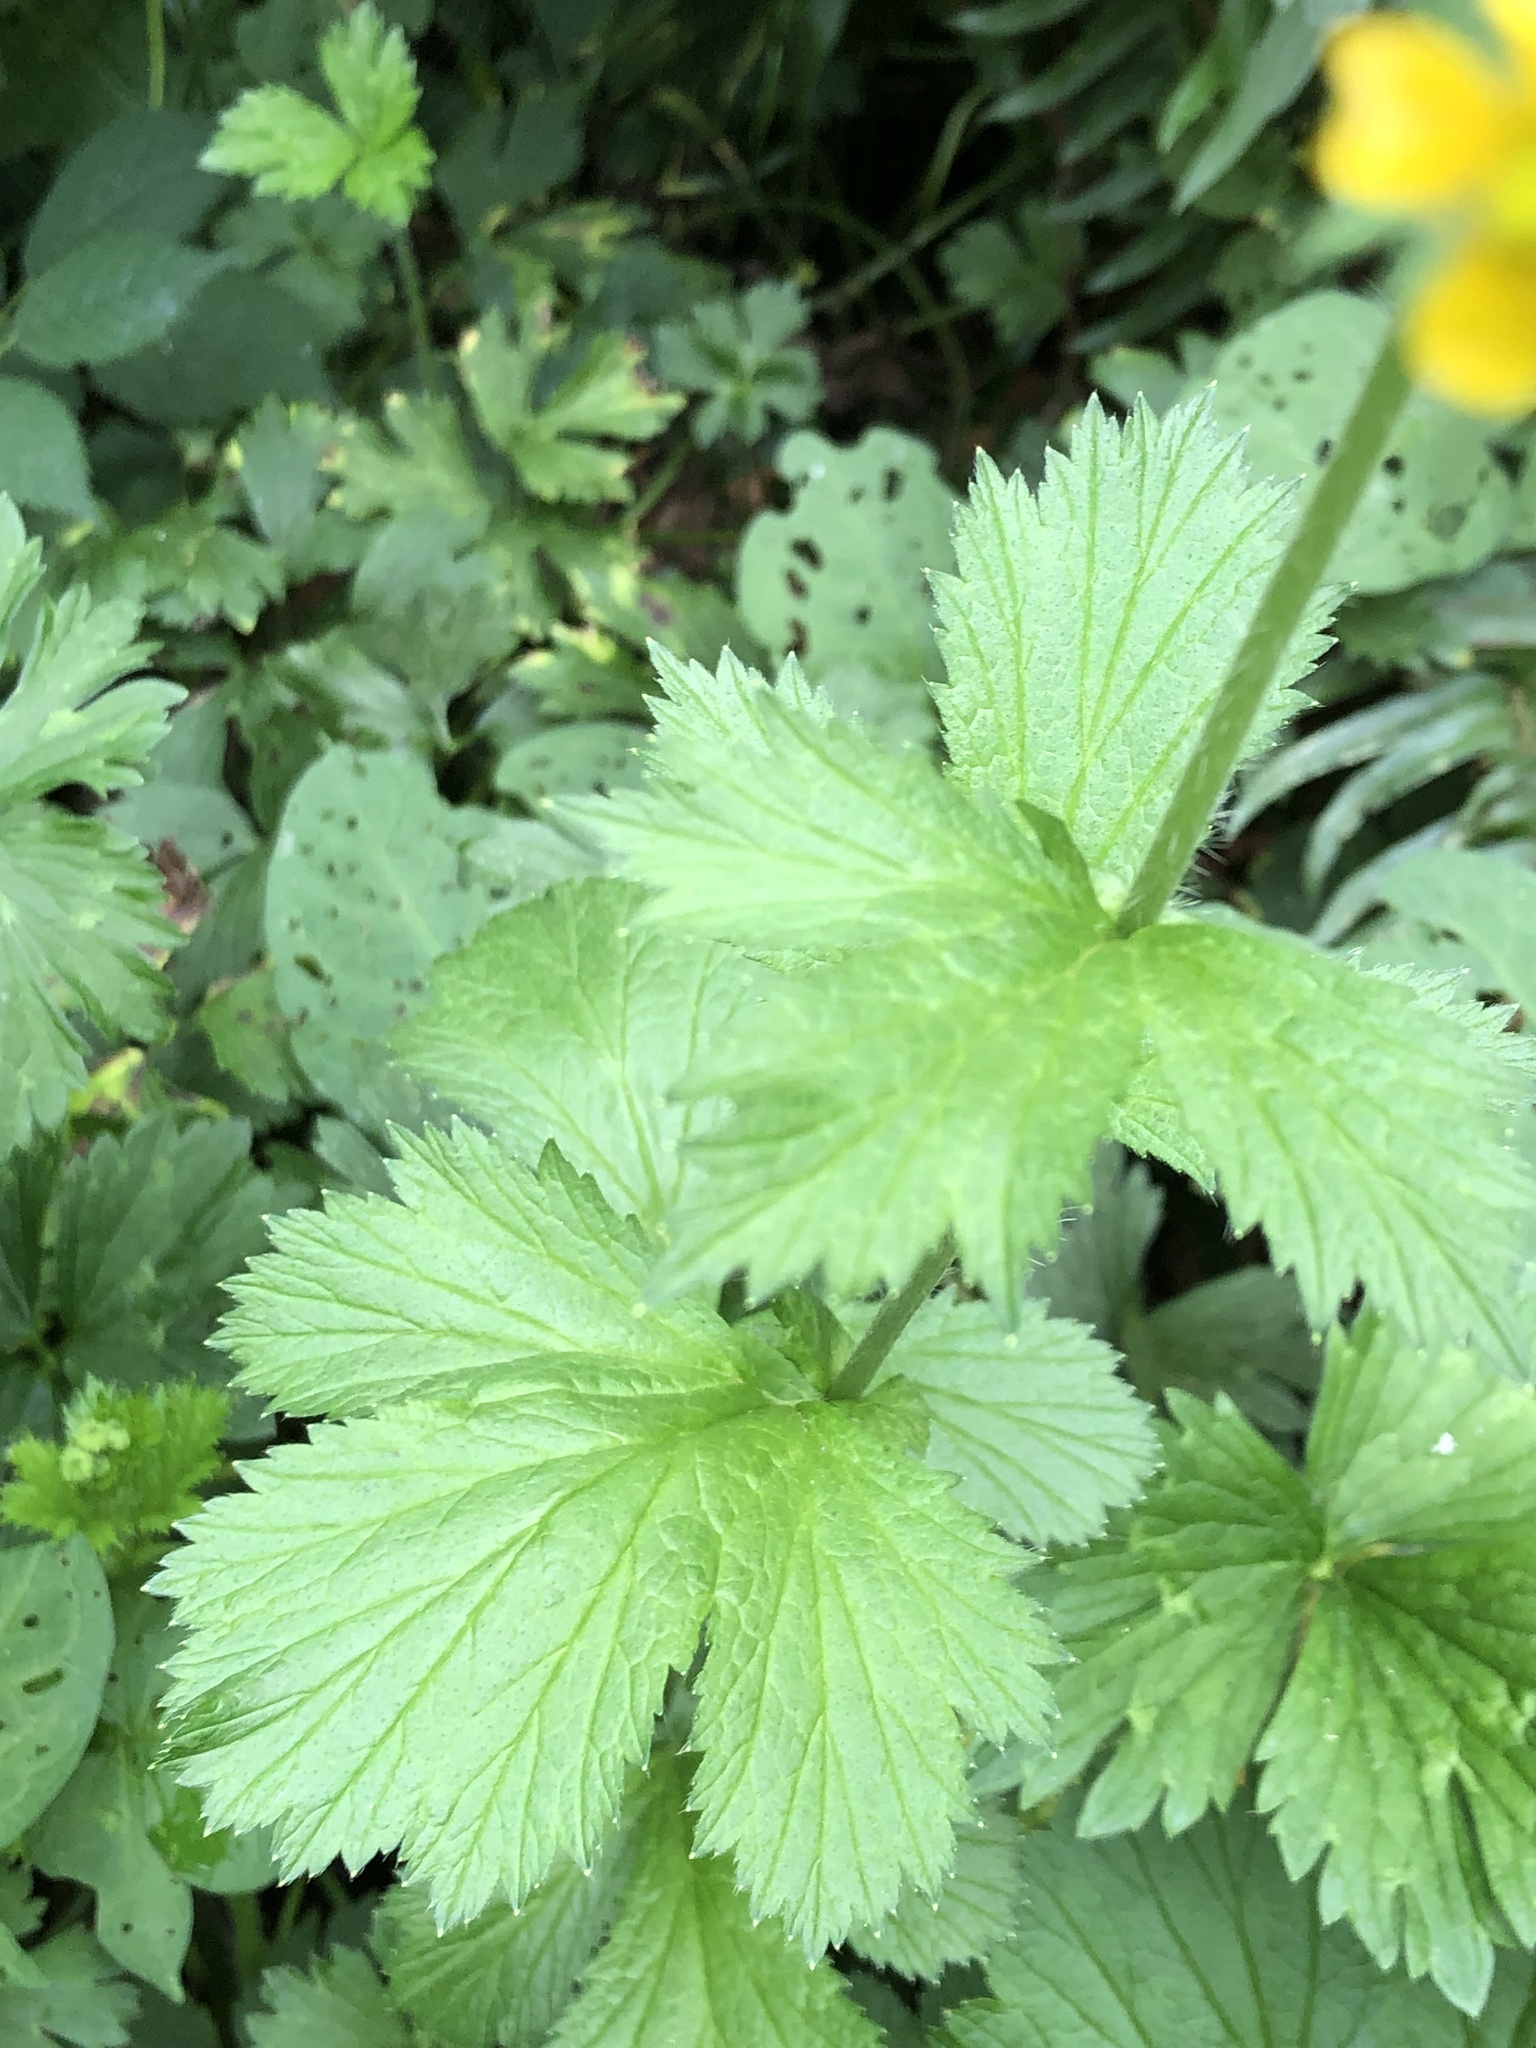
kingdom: Plantae
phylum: Tracheophyta
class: Magnoliopsida
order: Rosales
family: Rosaceae
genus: Geum
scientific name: Geum macrophyllum
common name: Large-leaved avens
